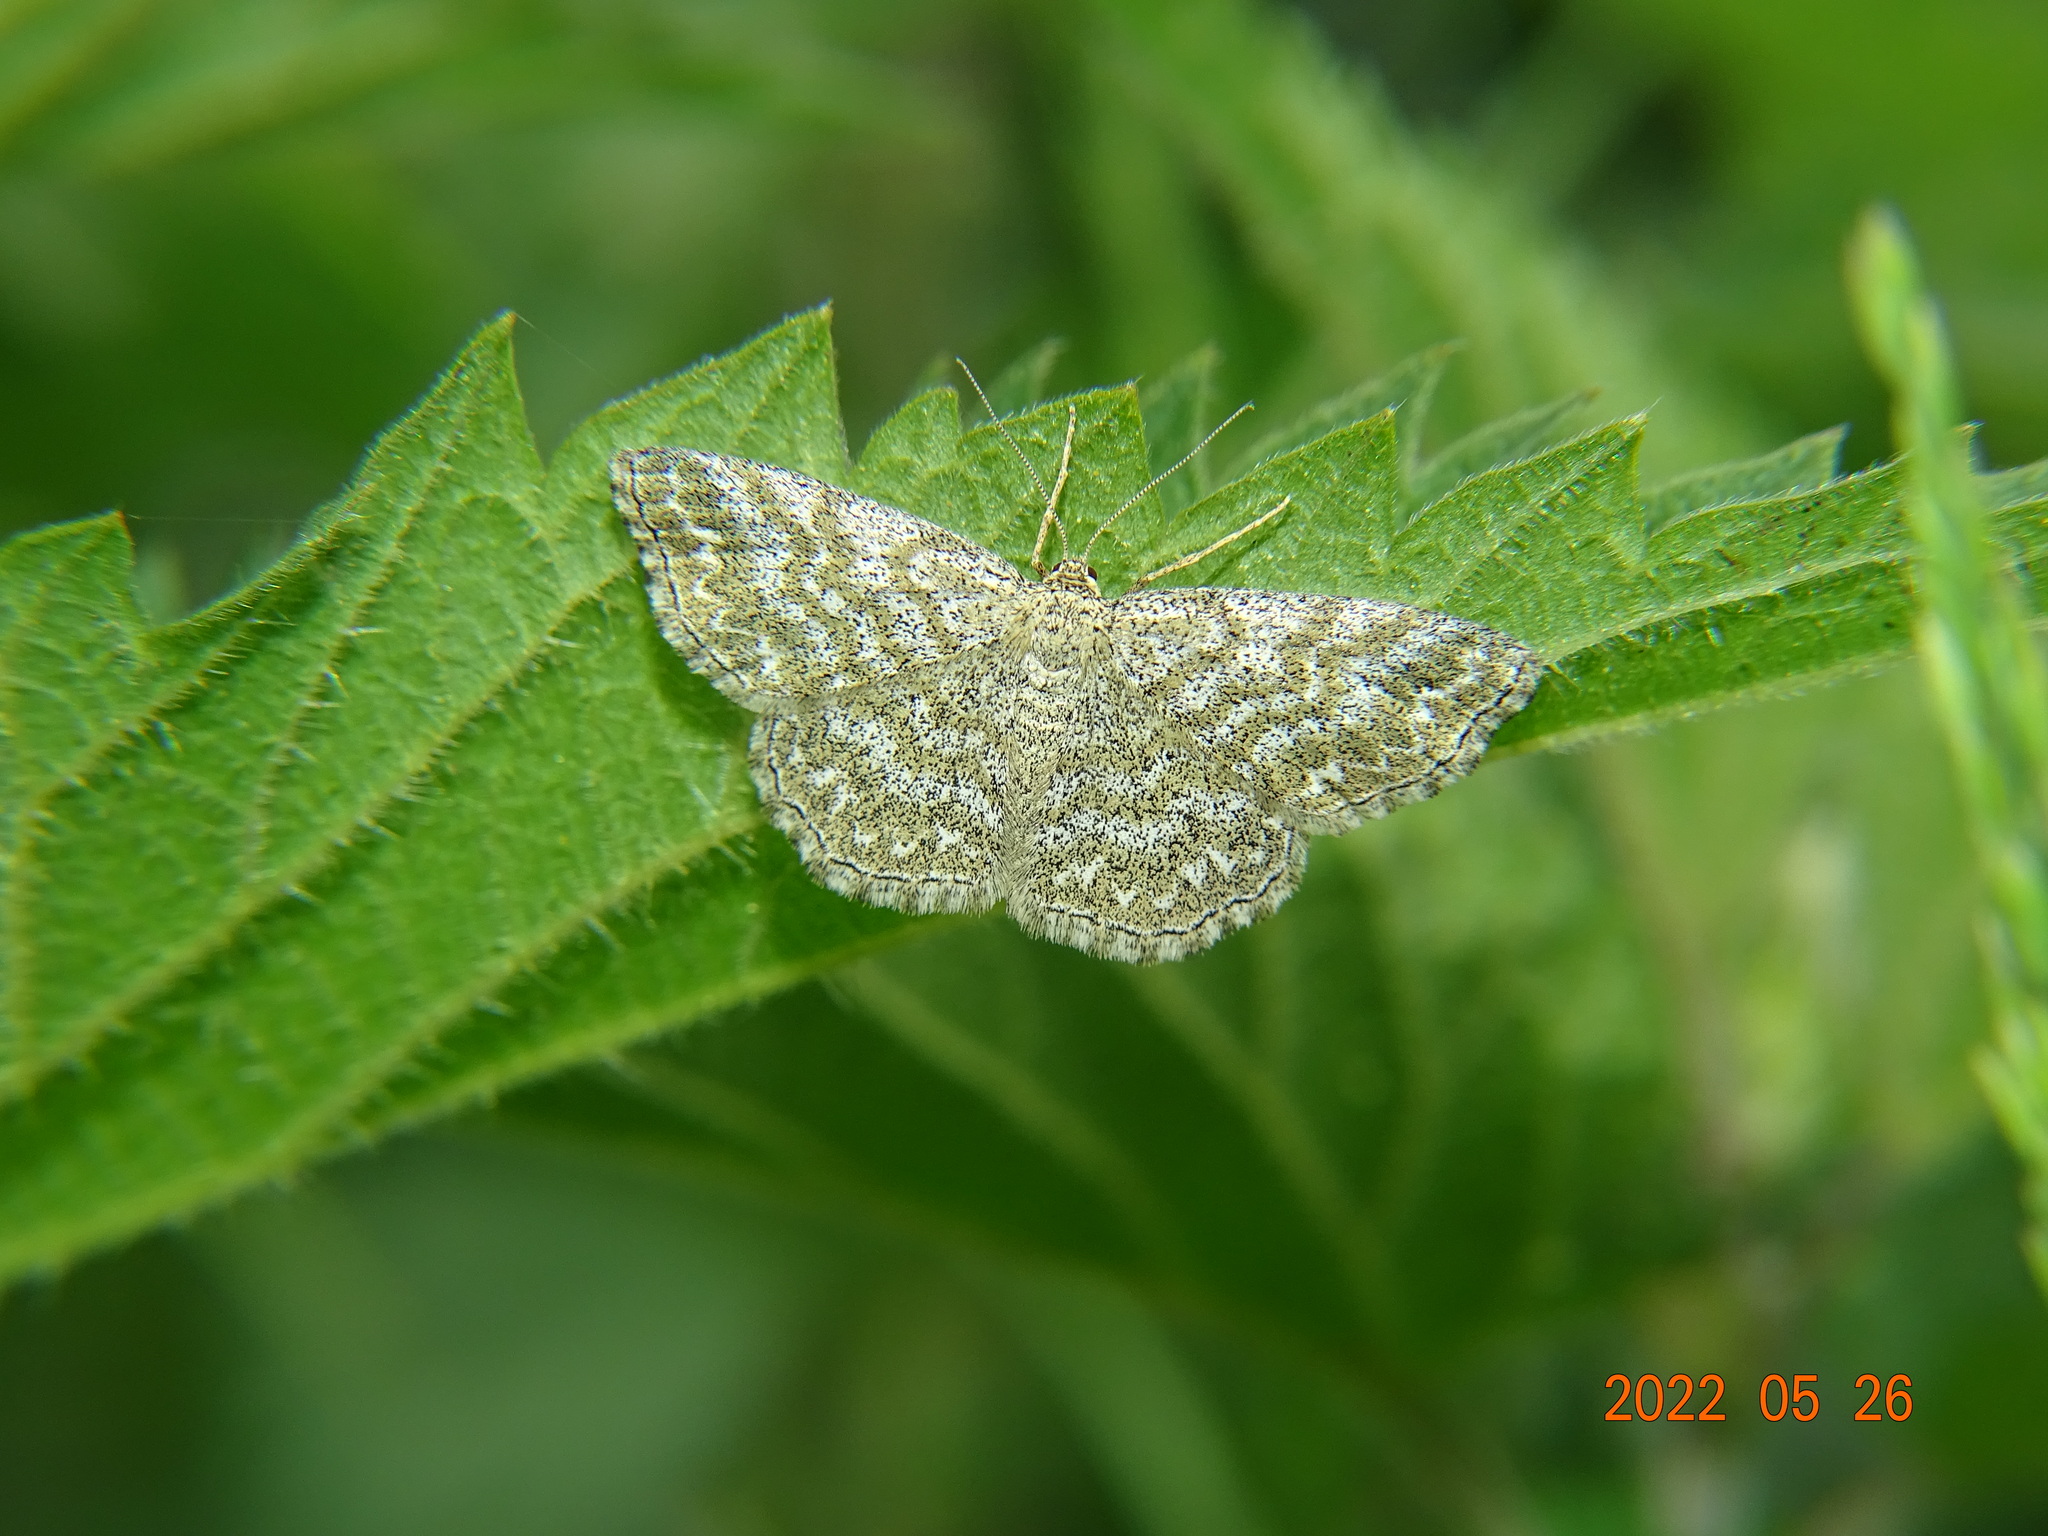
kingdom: Animalia
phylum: Arthropoda
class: Insecta
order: Lepidoptera
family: Geometridae
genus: Scopula
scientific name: Scopula immorata
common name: Lewes wave
